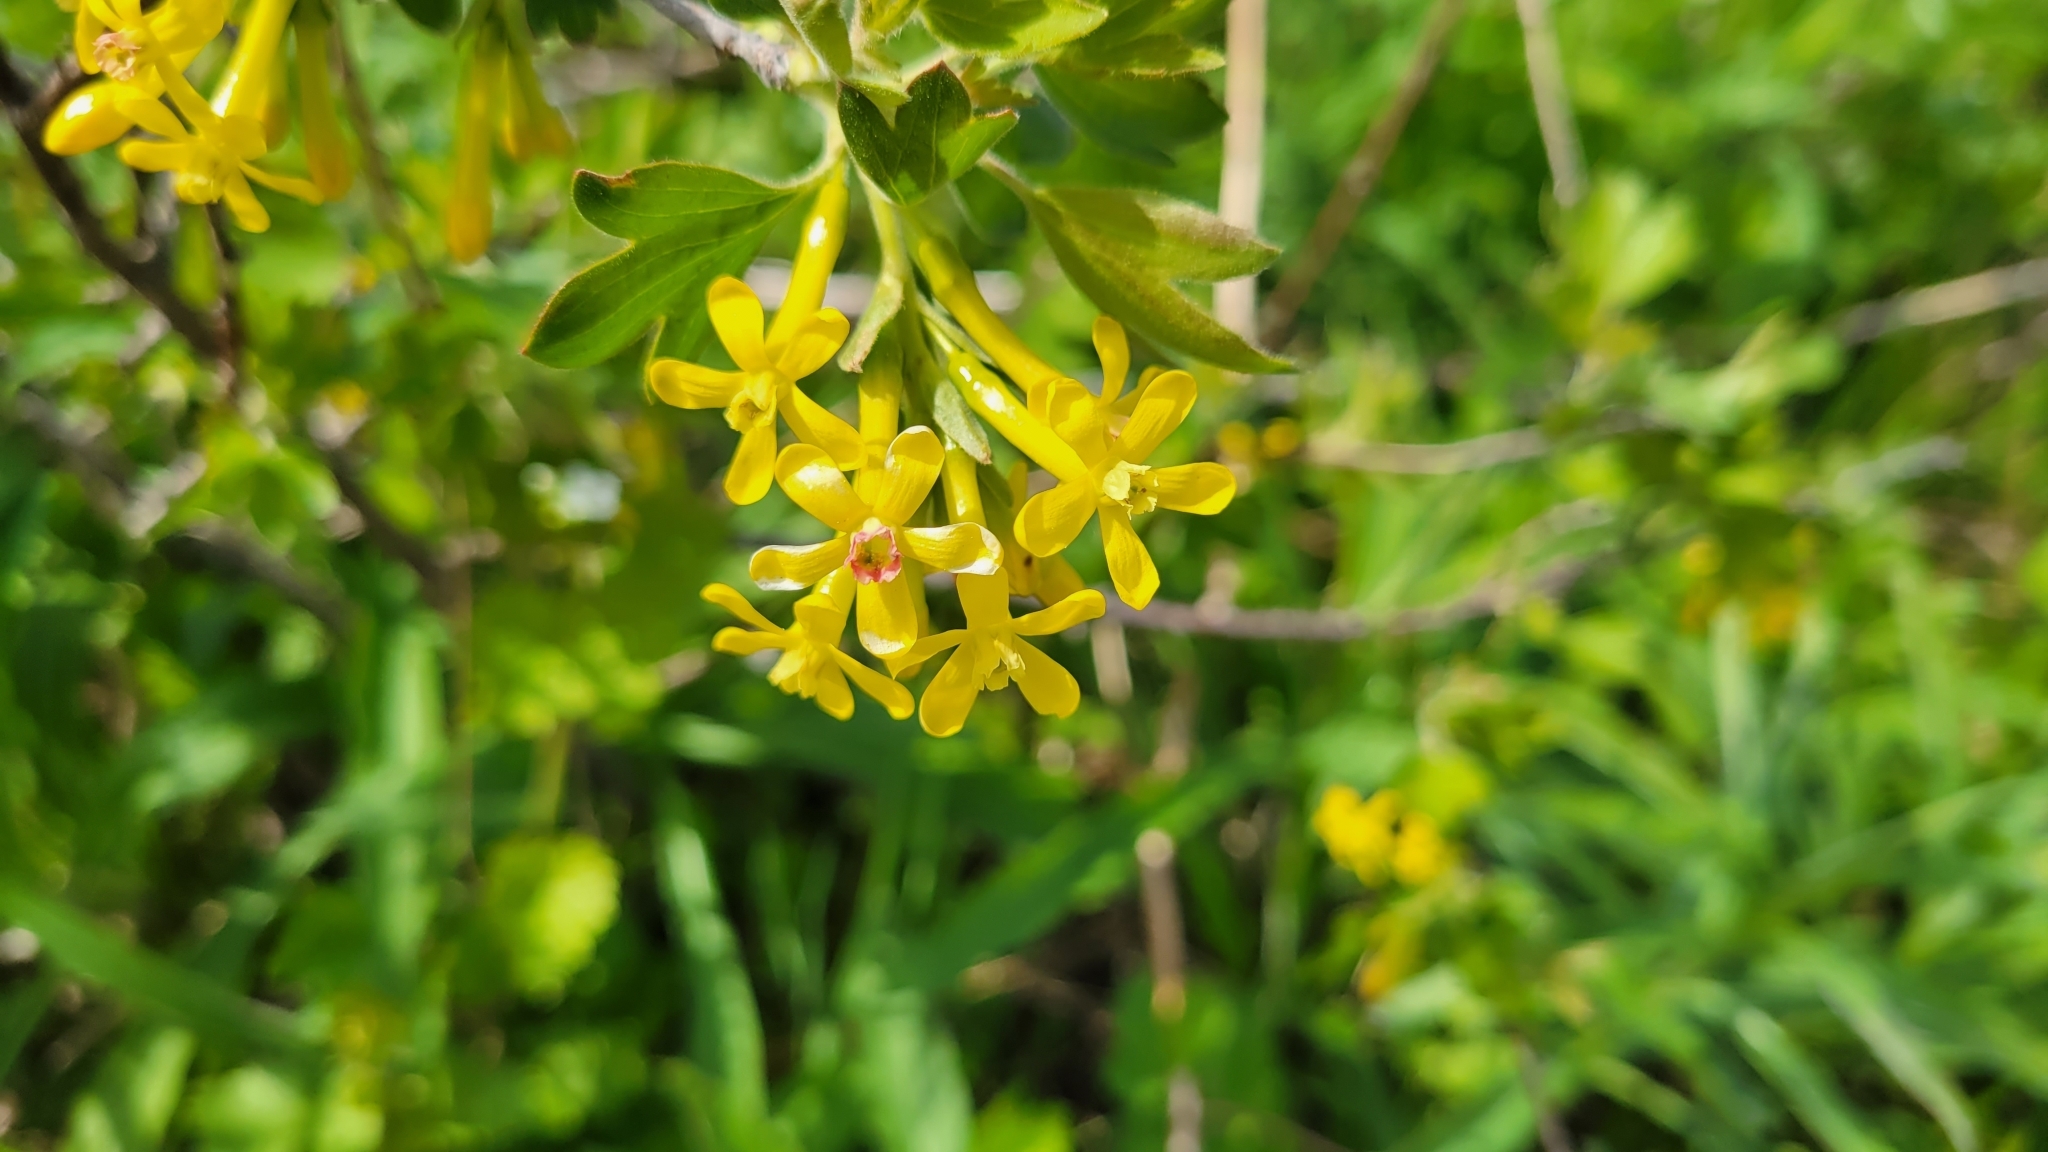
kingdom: Plantae
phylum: Tracheophyta
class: Magnoliopsida
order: Saxifragales
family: Grossulariaceae
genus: Ribes
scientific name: Ribes aureum
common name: Golden currant
